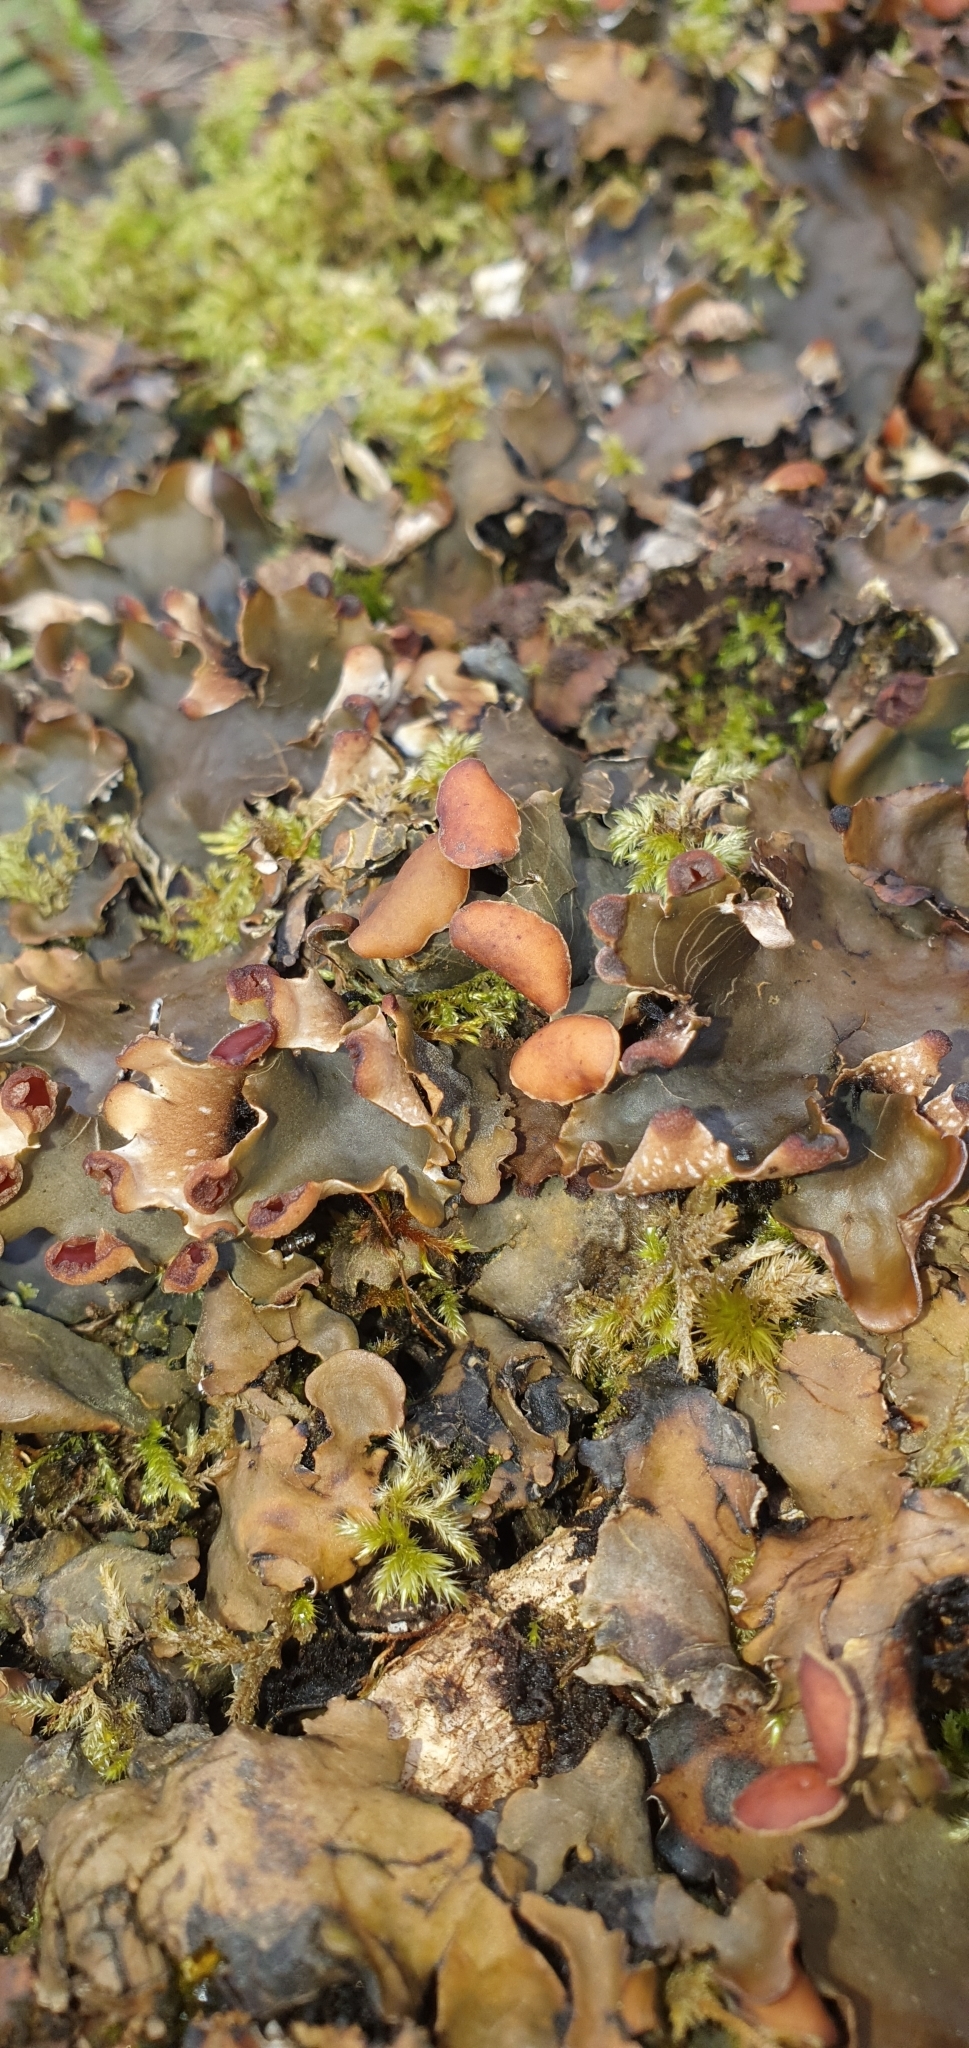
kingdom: Fungi
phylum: Ascomycota
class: Lecanoromycetes
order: Peltigerales
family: Peltigeraceae
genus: Peltigera
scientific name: Peltigera horizontalis
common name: Flat fruited pelt
